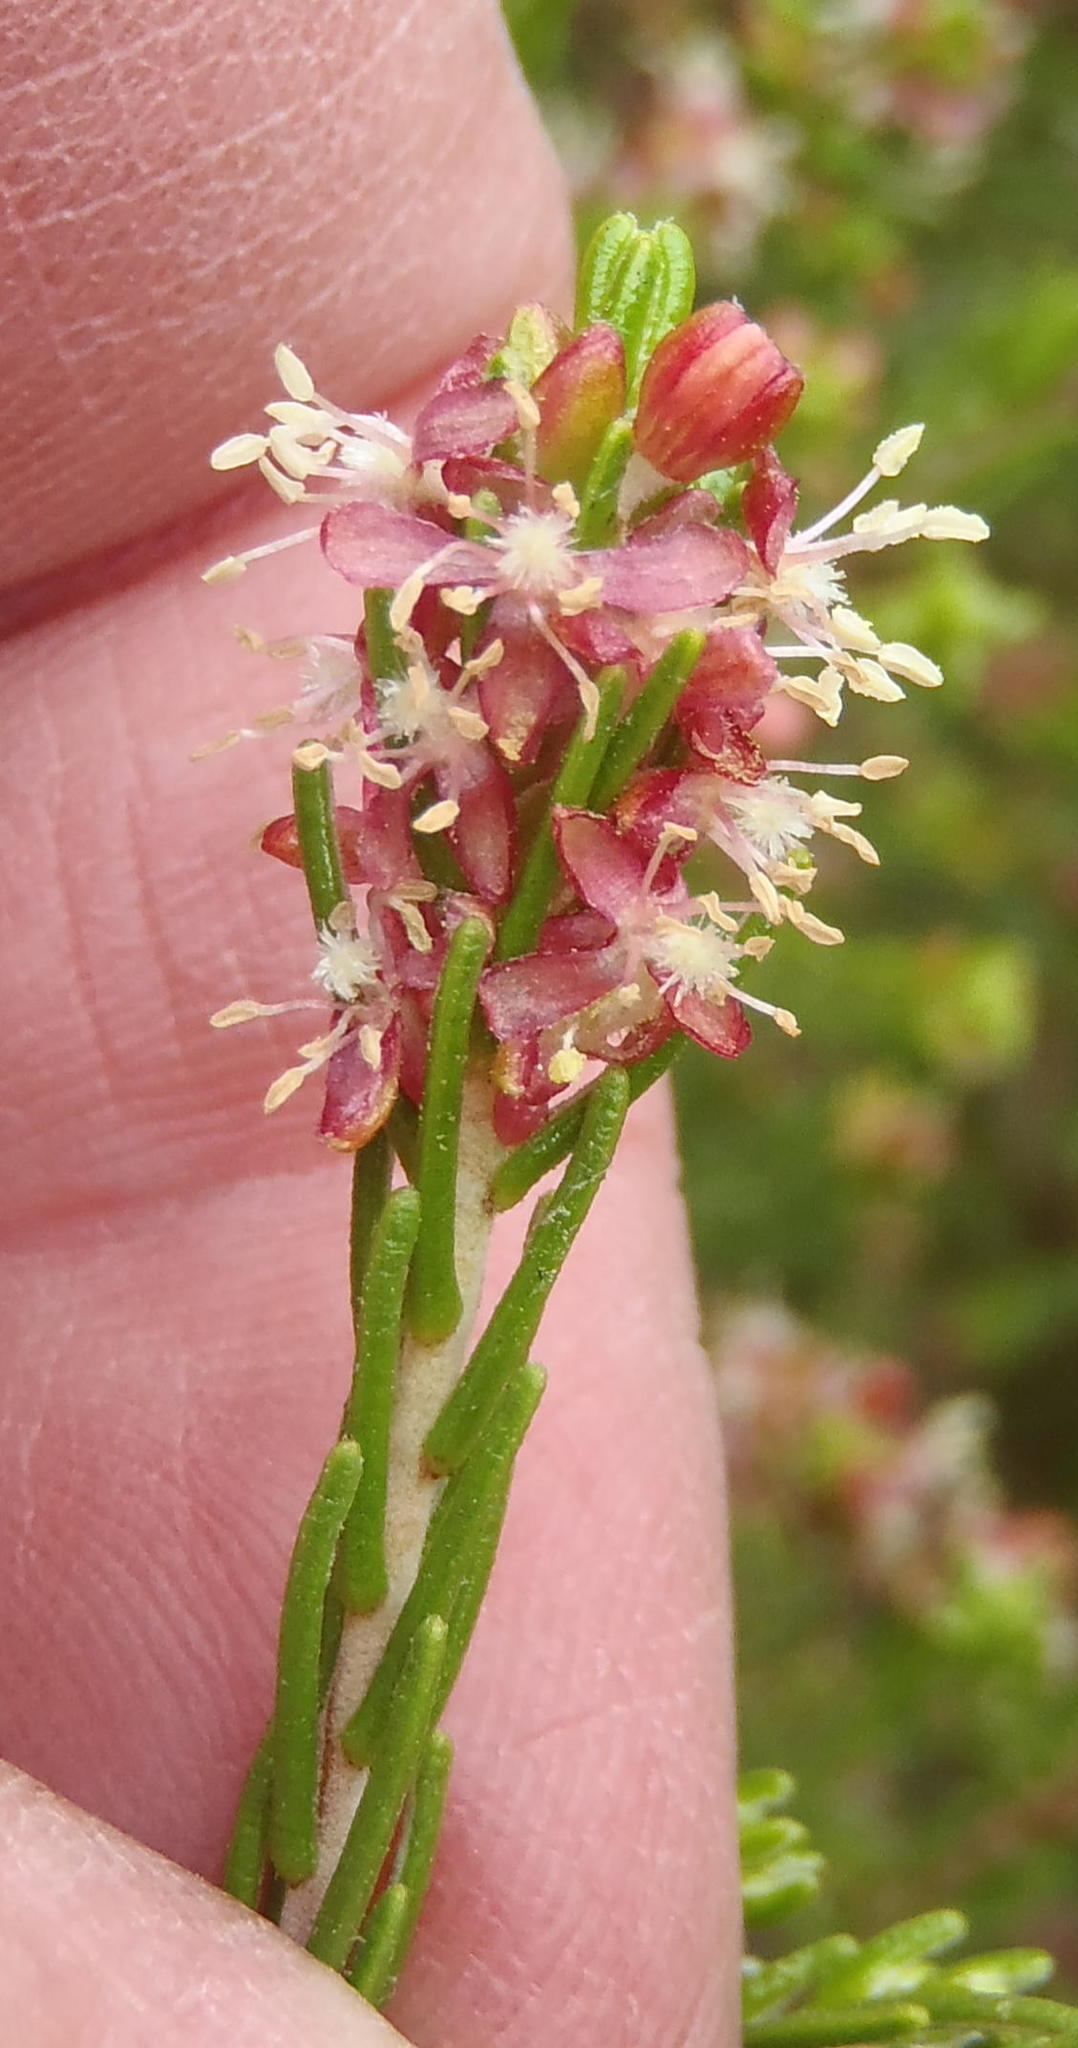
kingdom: Plantae
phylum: Tracheophyta
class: Magnoliopsida
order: Malvales
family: Thymelaeaceae
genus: Passerina
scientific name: Passerina obtusifolia
